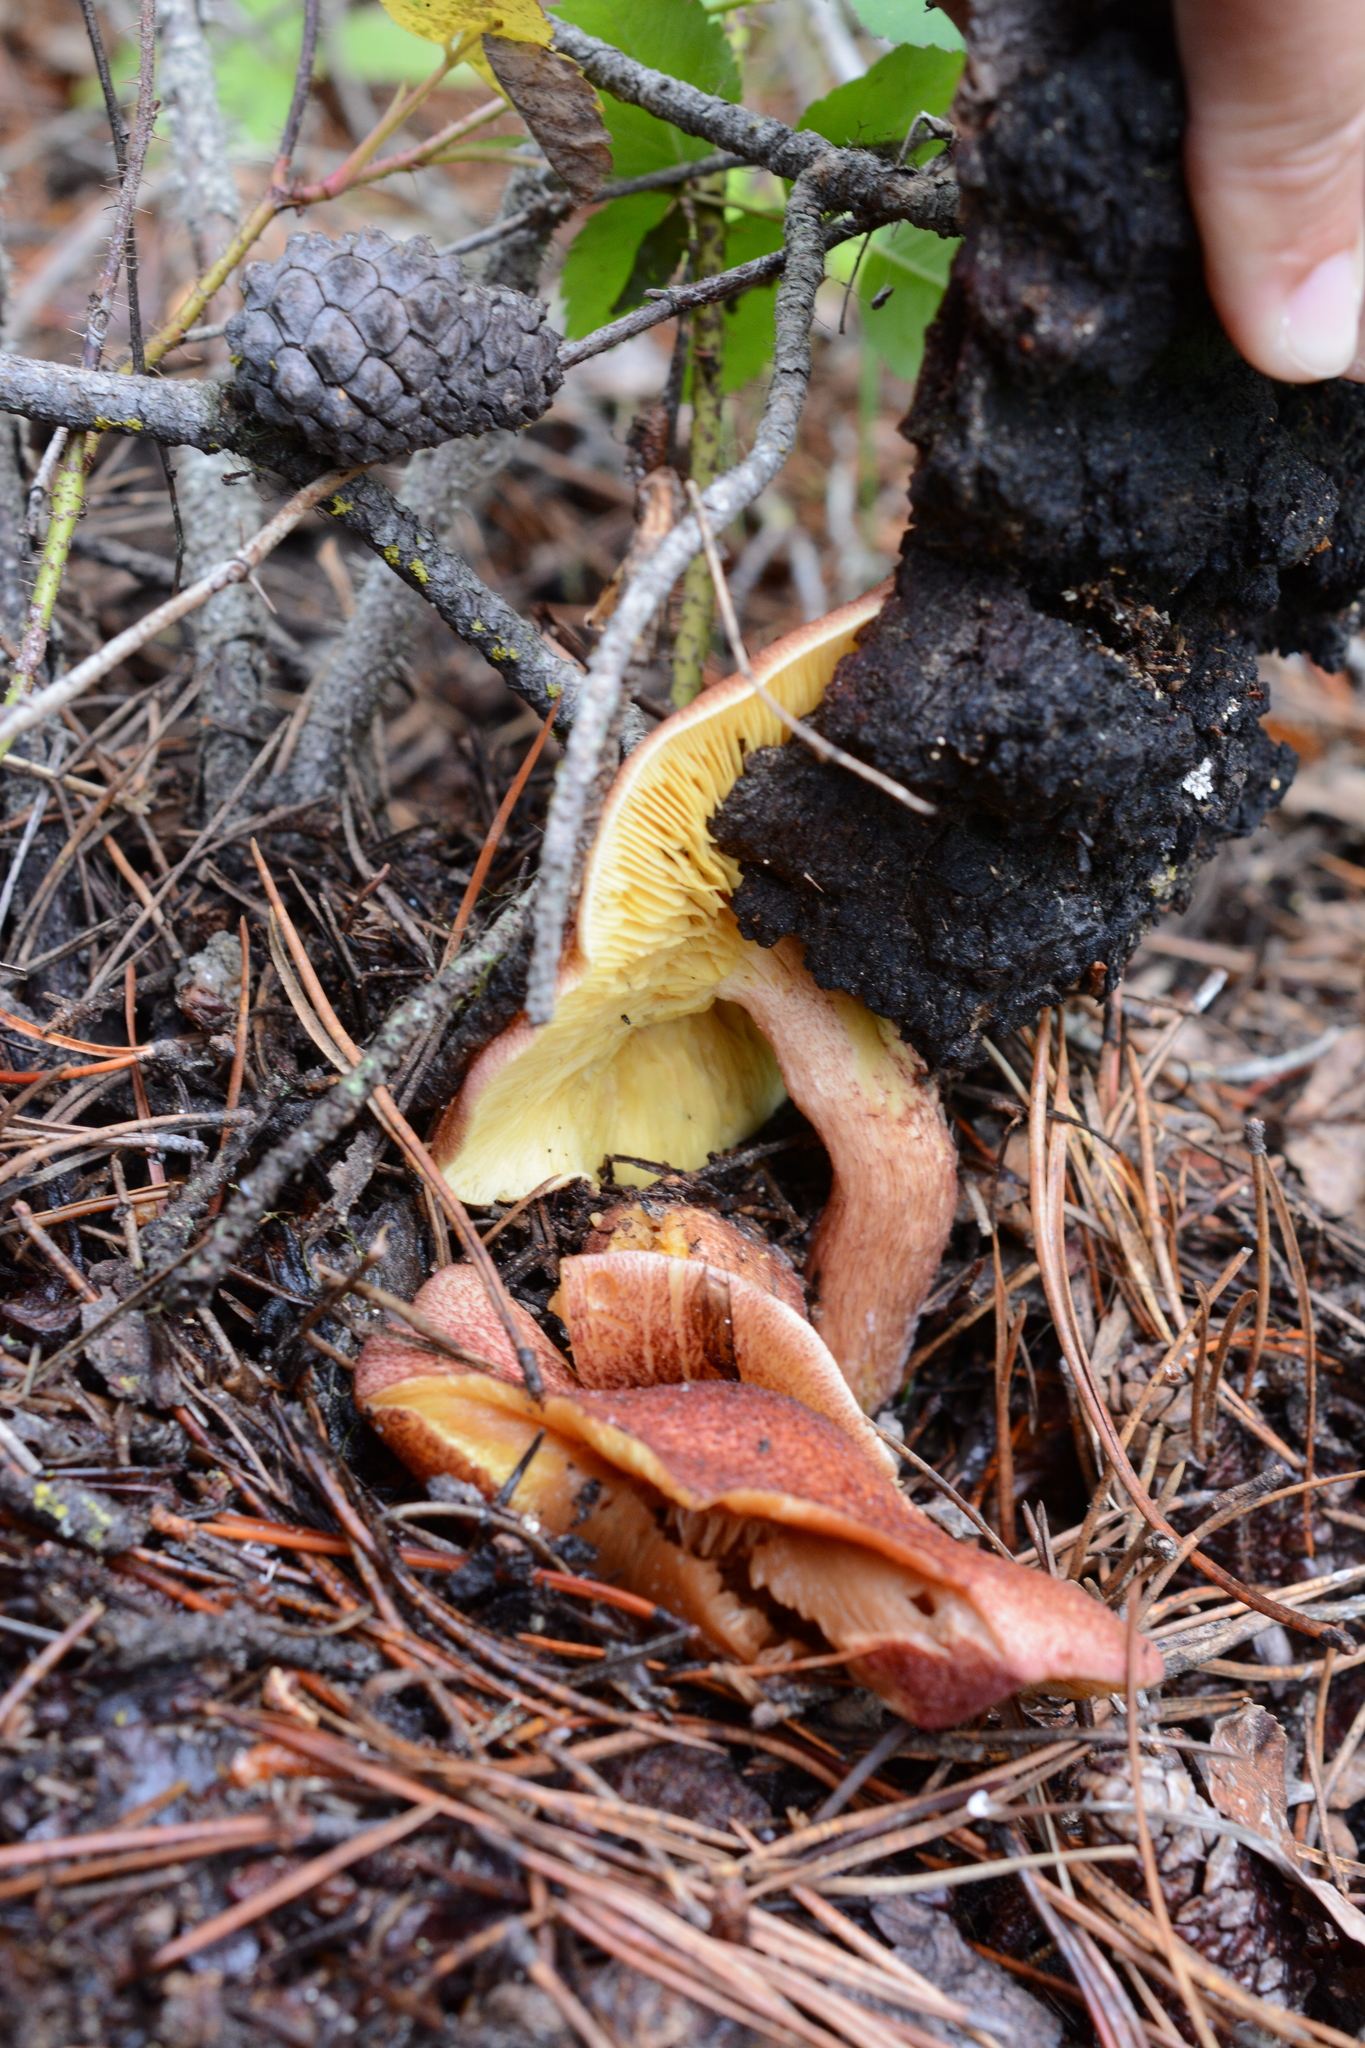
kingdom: Fungi
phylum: Basidiomycota
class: Agaricomycetes
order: Agaricales
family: Tricholomataceae
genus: Tricholomopsis
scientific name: Tricholomopsis rutilans
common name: Plums and custard
